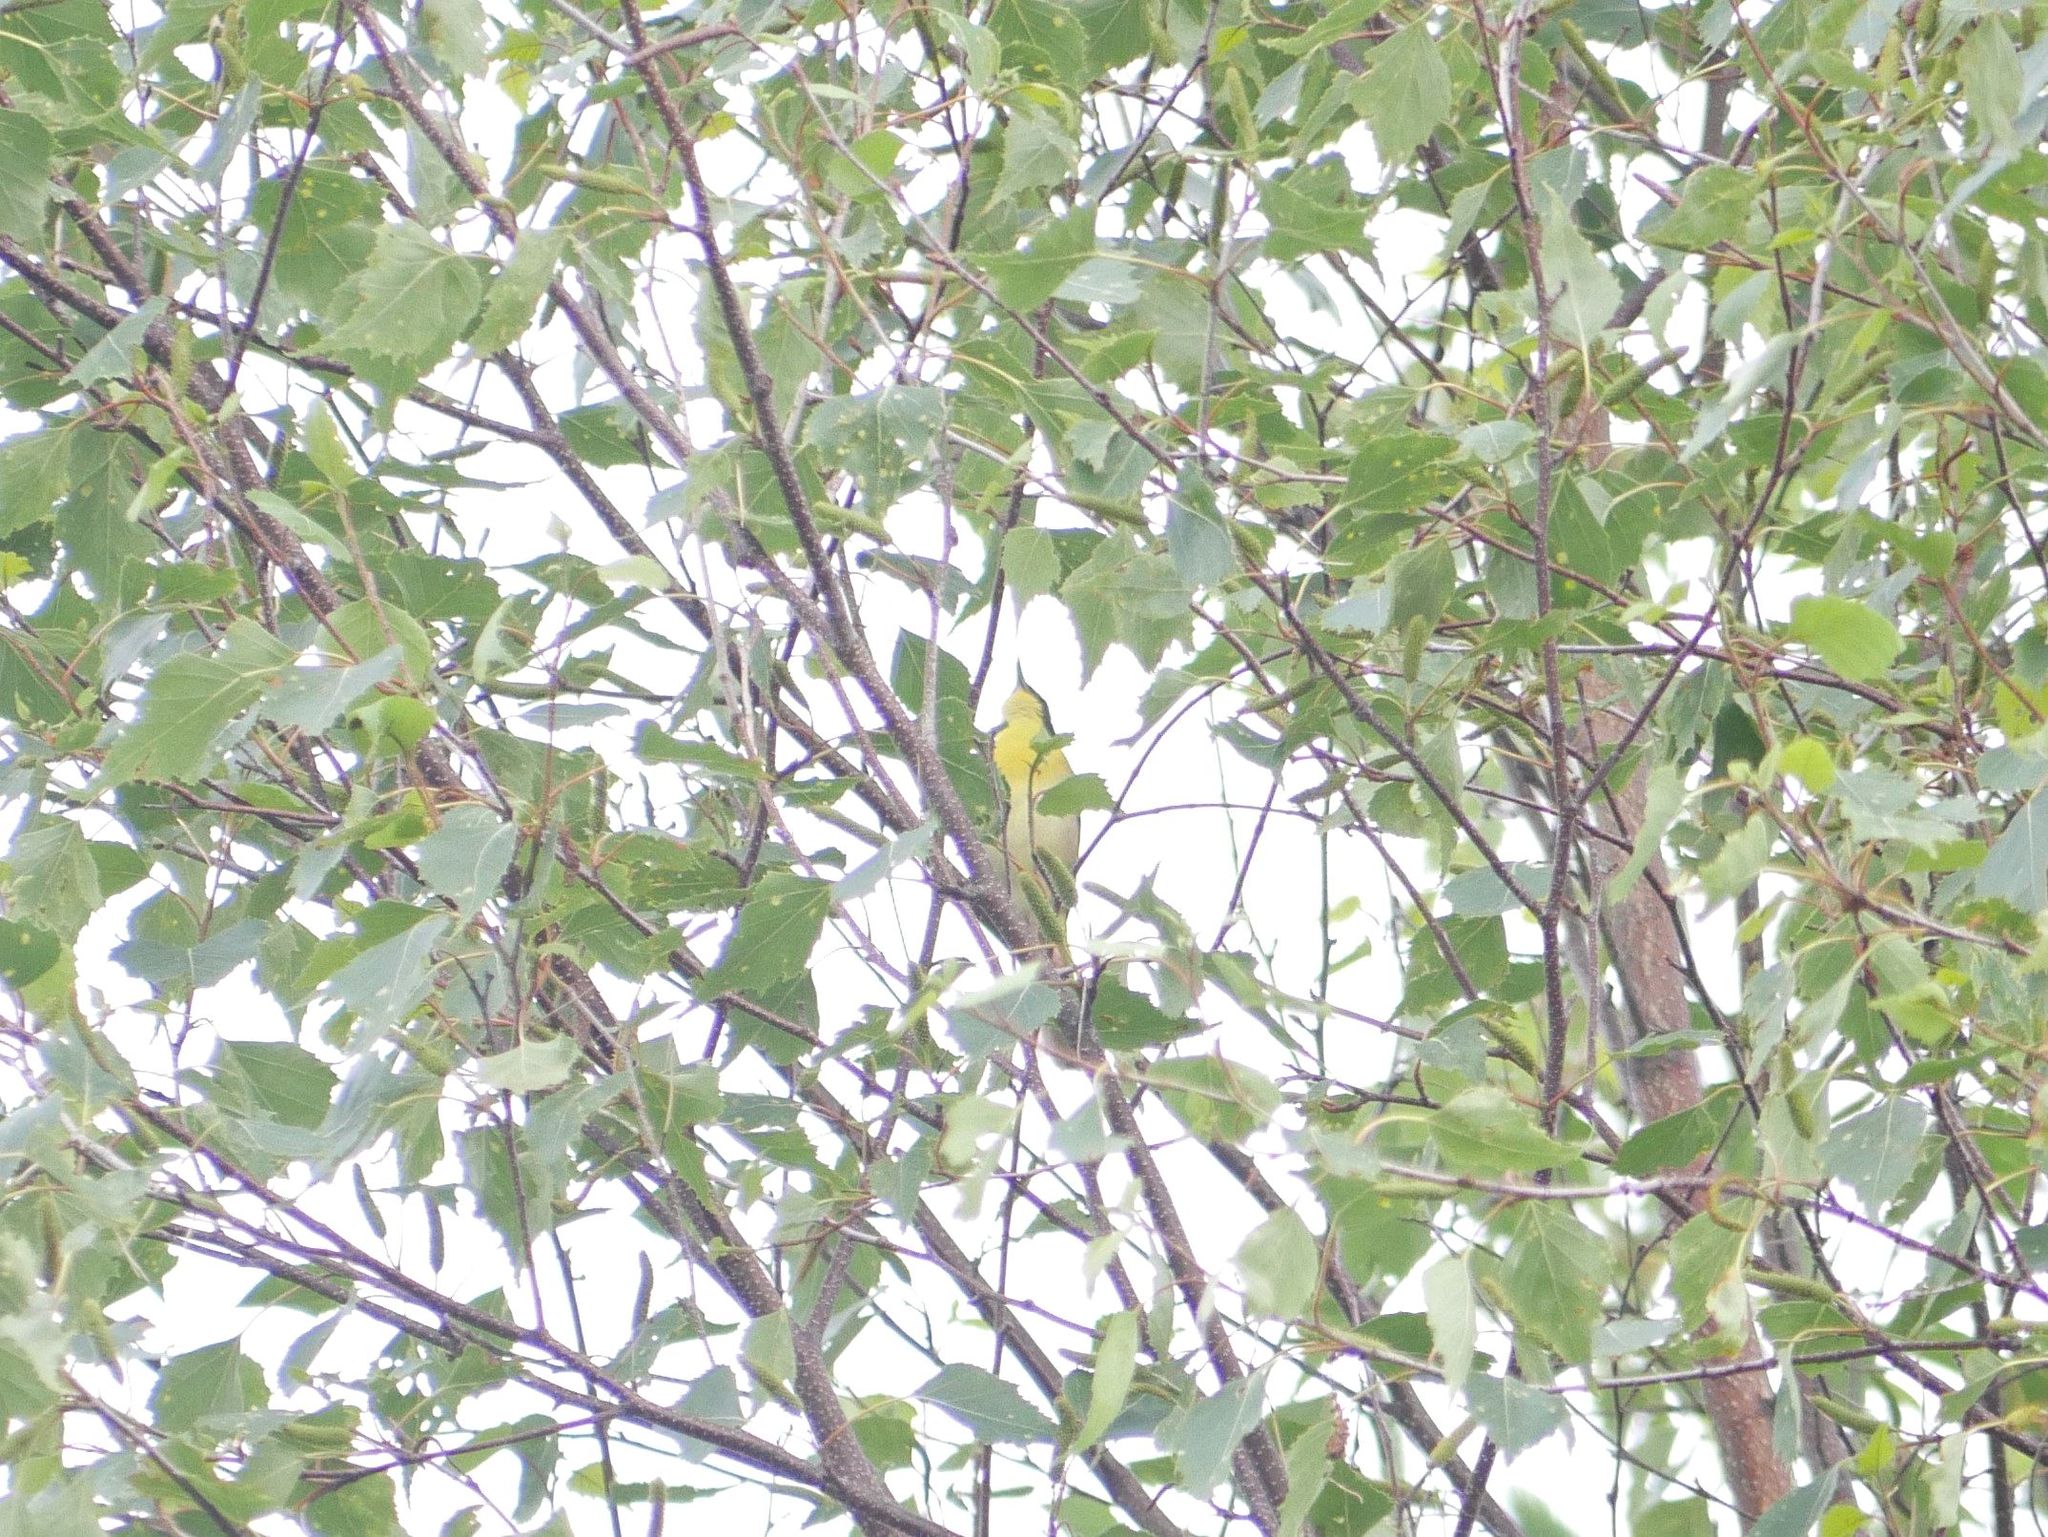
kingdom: Animalia
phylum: Chordata
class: Aves
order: Passeriformes
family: Parulidae
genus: Geothlypis
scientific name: Geothlypis trichas
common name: Common yellowthroat
